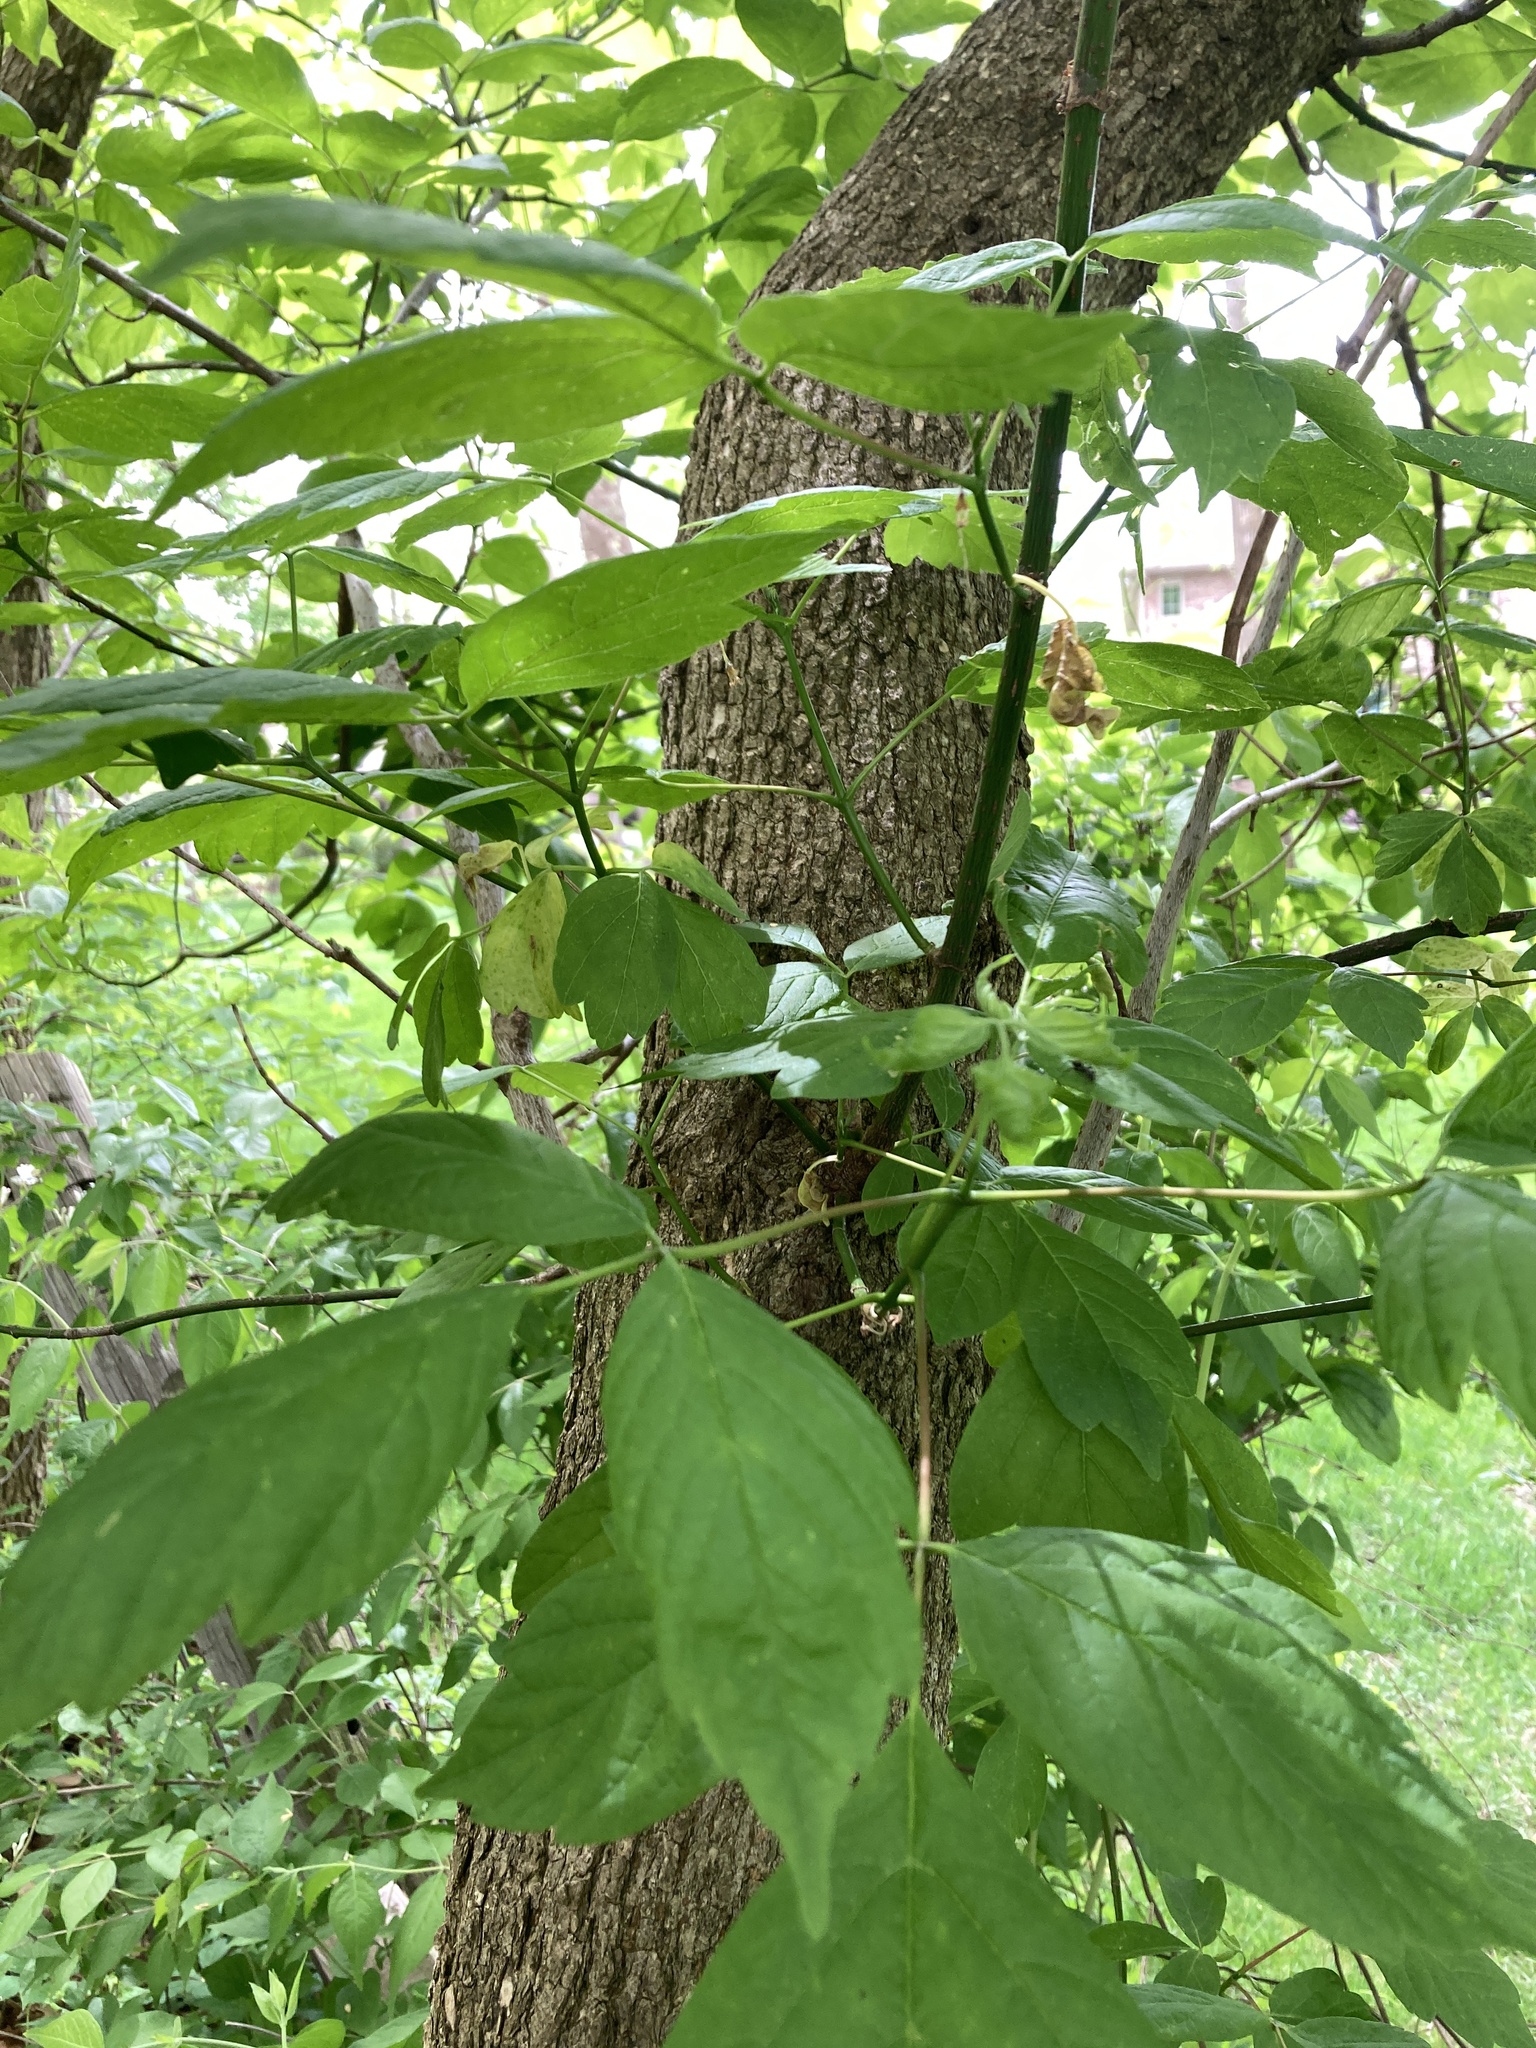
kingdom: Plantae
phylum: Tracheophyta
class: Magnoliopsida
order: Sapindales
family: Sapindaceae
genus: Acer
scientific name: Acer negundo
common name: Ashleaf maple
